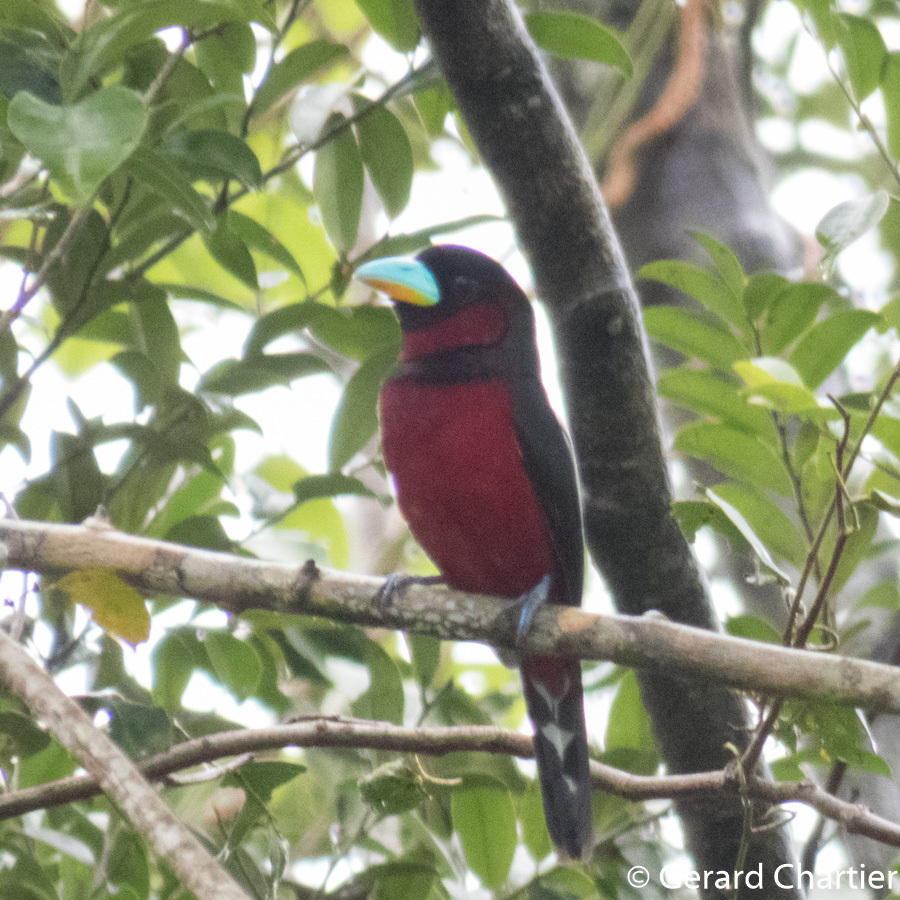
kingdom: Animalia
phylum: Chordata
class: Aves
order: Passeriformes
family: Eurylaimidae
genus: Cymbirhynchus
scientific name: Cymbirhynchus macrorhynchos
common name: Black-and-red broadbill
